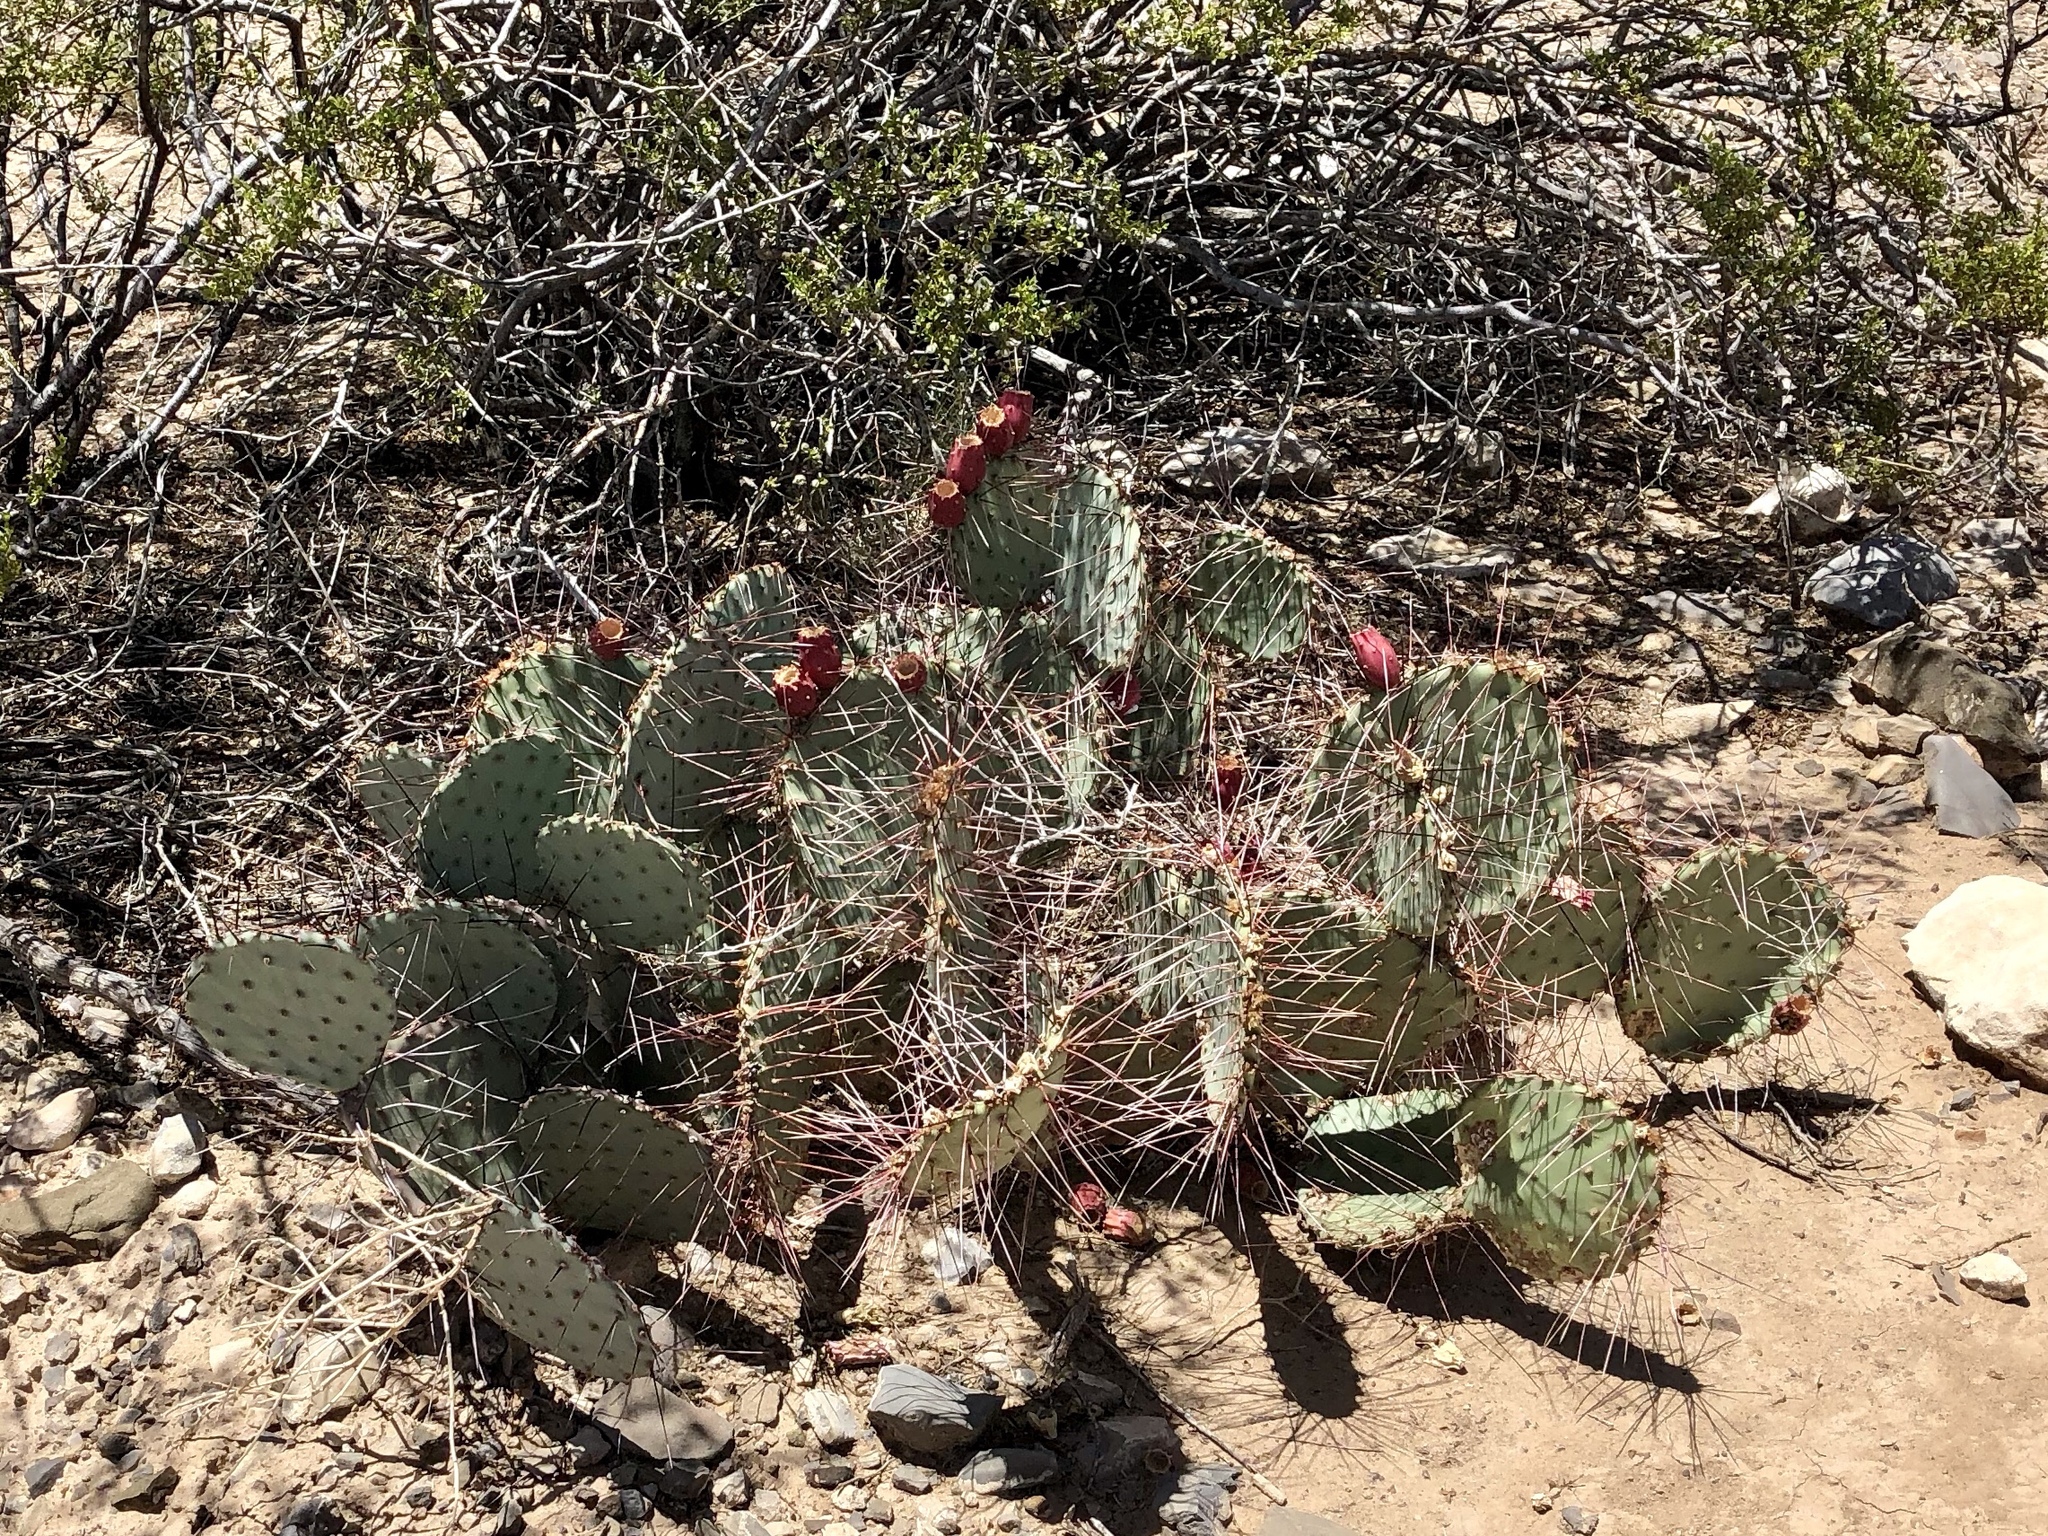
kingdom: Plantae
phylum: Tracheophyta
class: Magnoliopsida
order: Caryophyllales
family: Cactaceae
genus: Opuntia
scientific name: Opuntia phaeacantha
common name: New mexico prickly-pear
